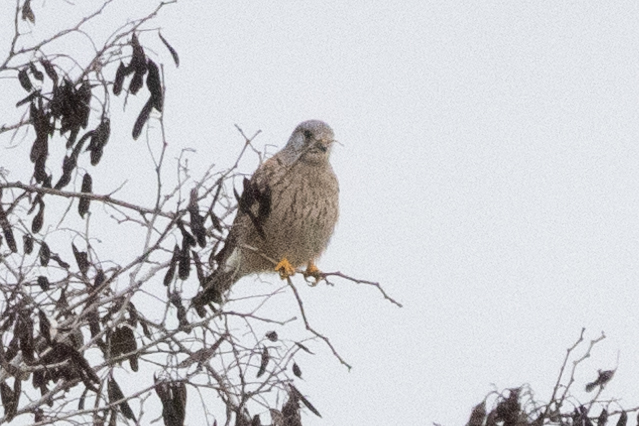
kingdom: Animalia
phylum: Chordata
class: Aves
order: Falconiformes
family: Falconidae
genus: Falco
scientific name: Falco tinnunculus
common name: Common kestrel
